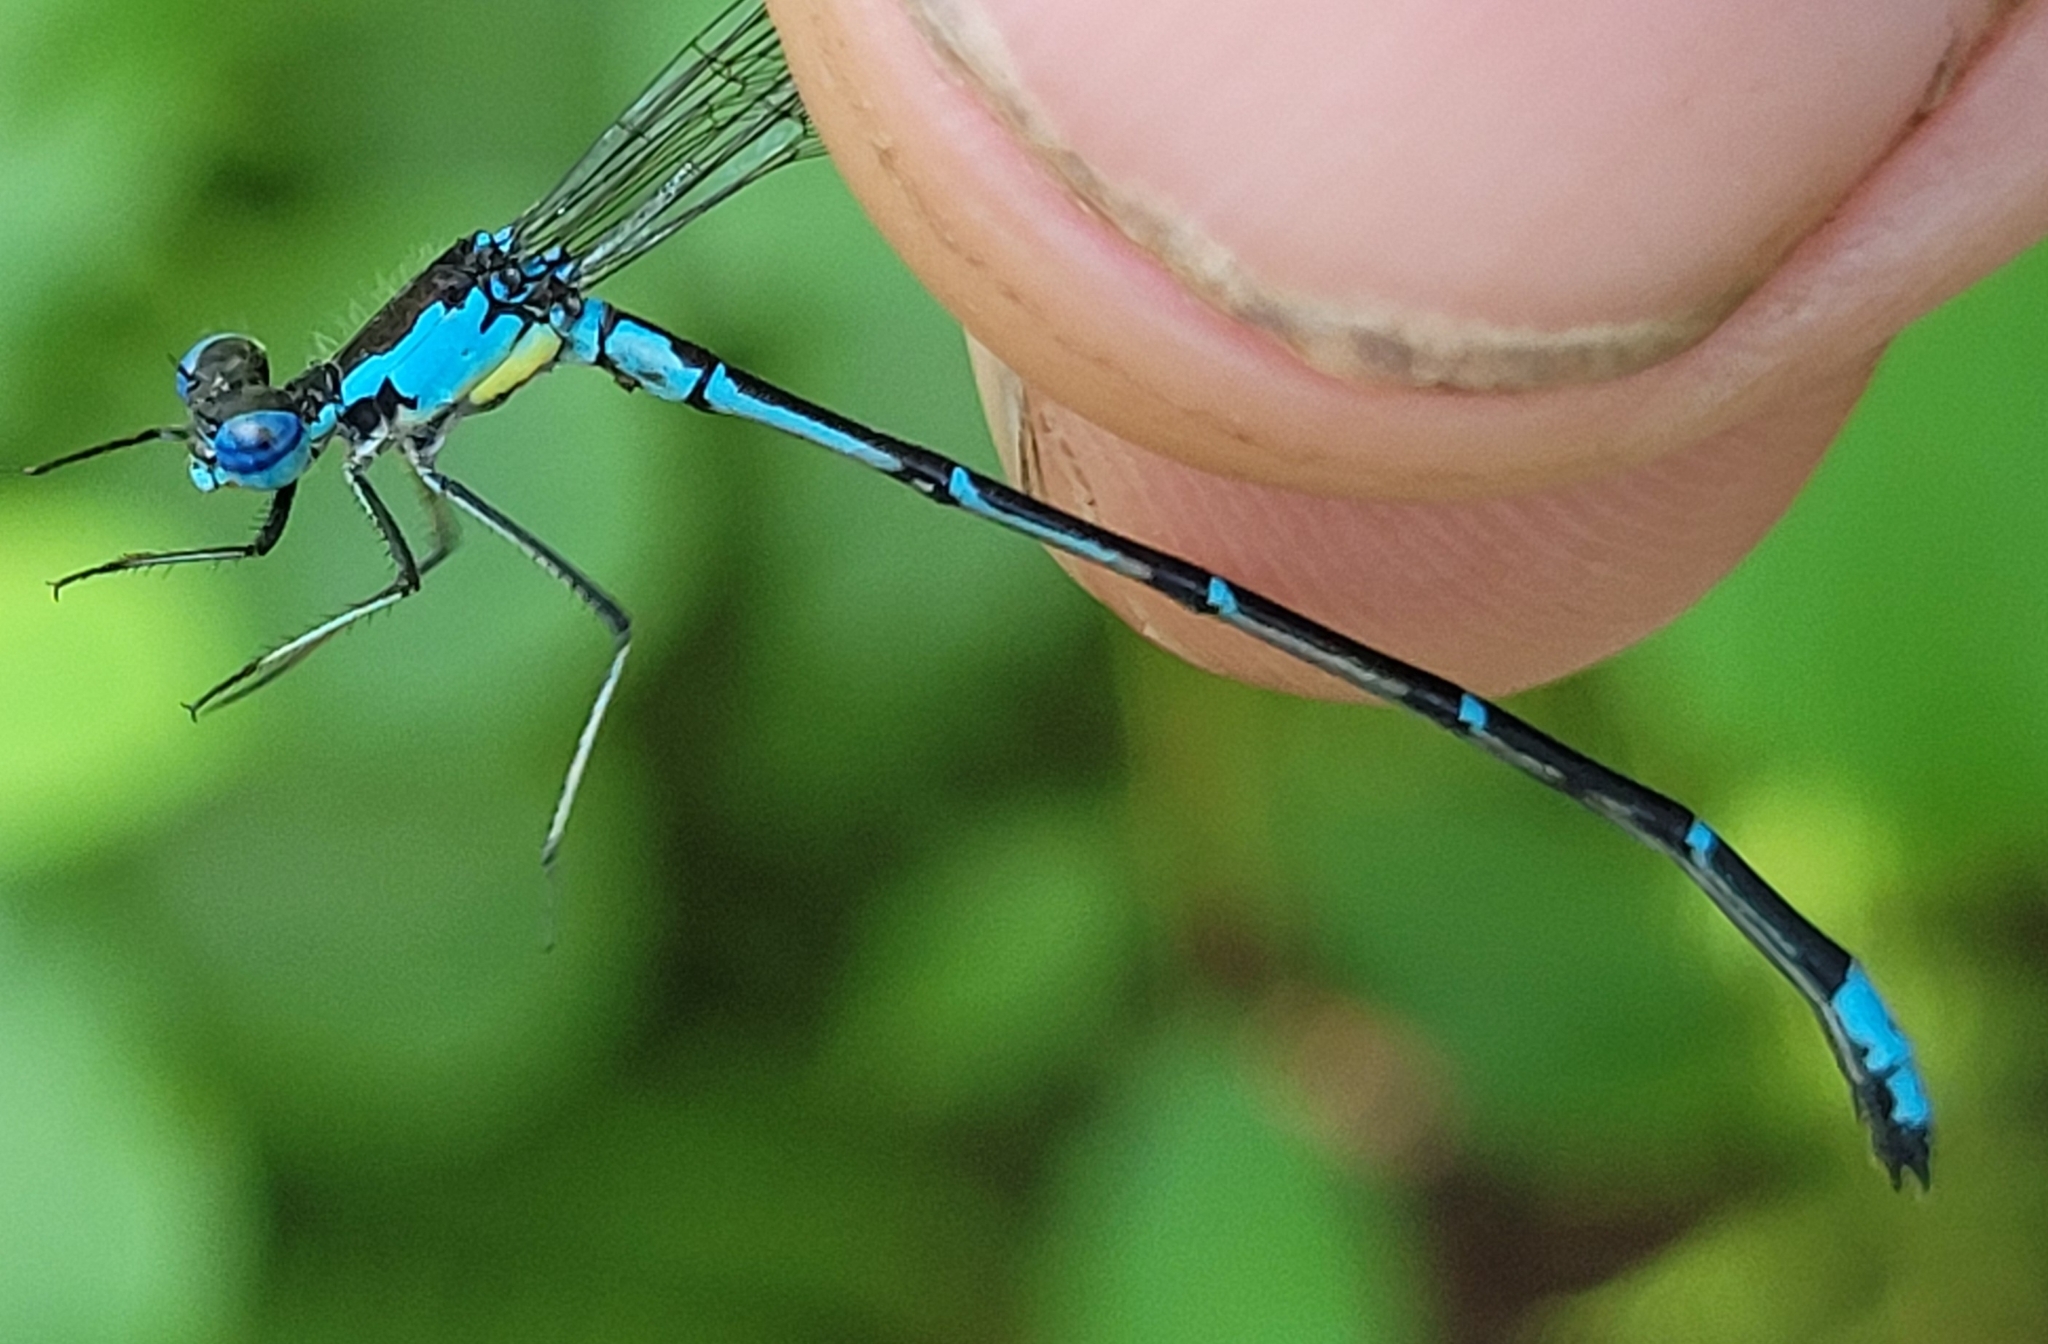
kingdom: Animalia
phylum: Arthropoda
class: Insecta
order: Odonata
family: Coenagrionidae
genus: Chromagrion
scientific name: Chromagrion conditum
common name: Aurora damsel
